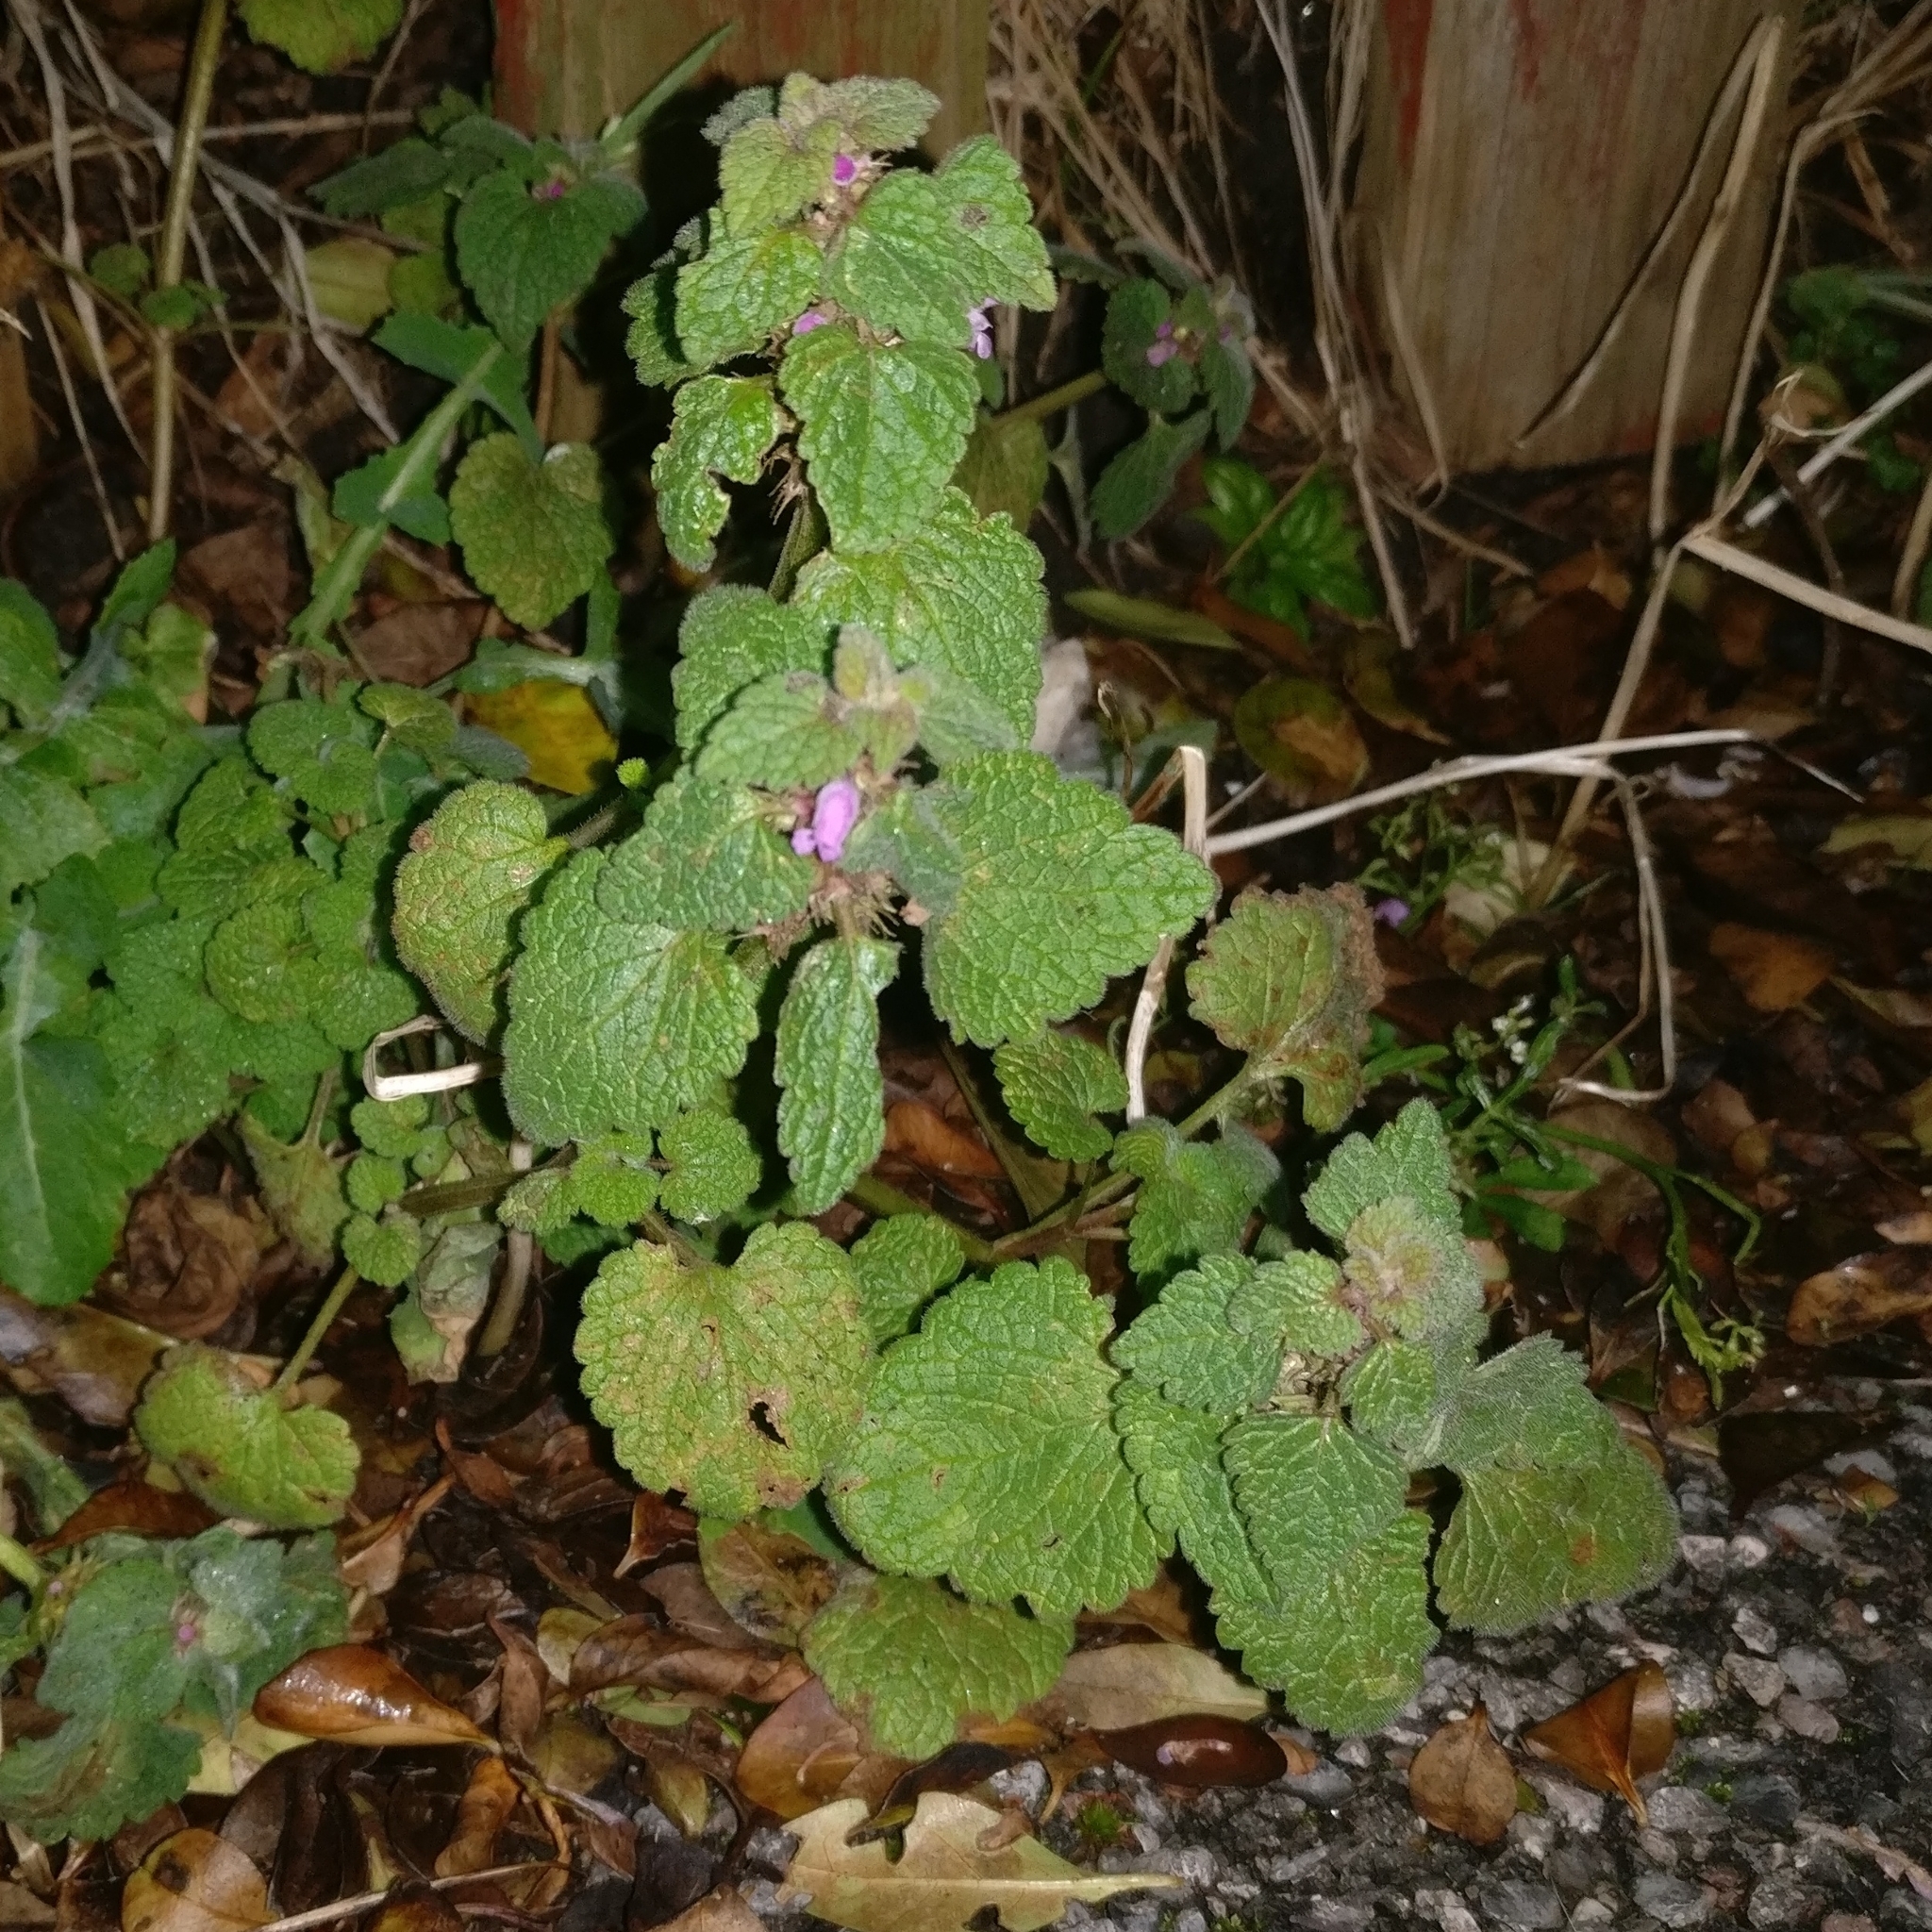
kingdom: Plantae
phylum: Tracheophyta
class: Magnoliopsida
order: Lamiales
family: Lamiaceae
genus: Lamium
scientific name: Lamium purpureum
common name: Red dead-nettle
